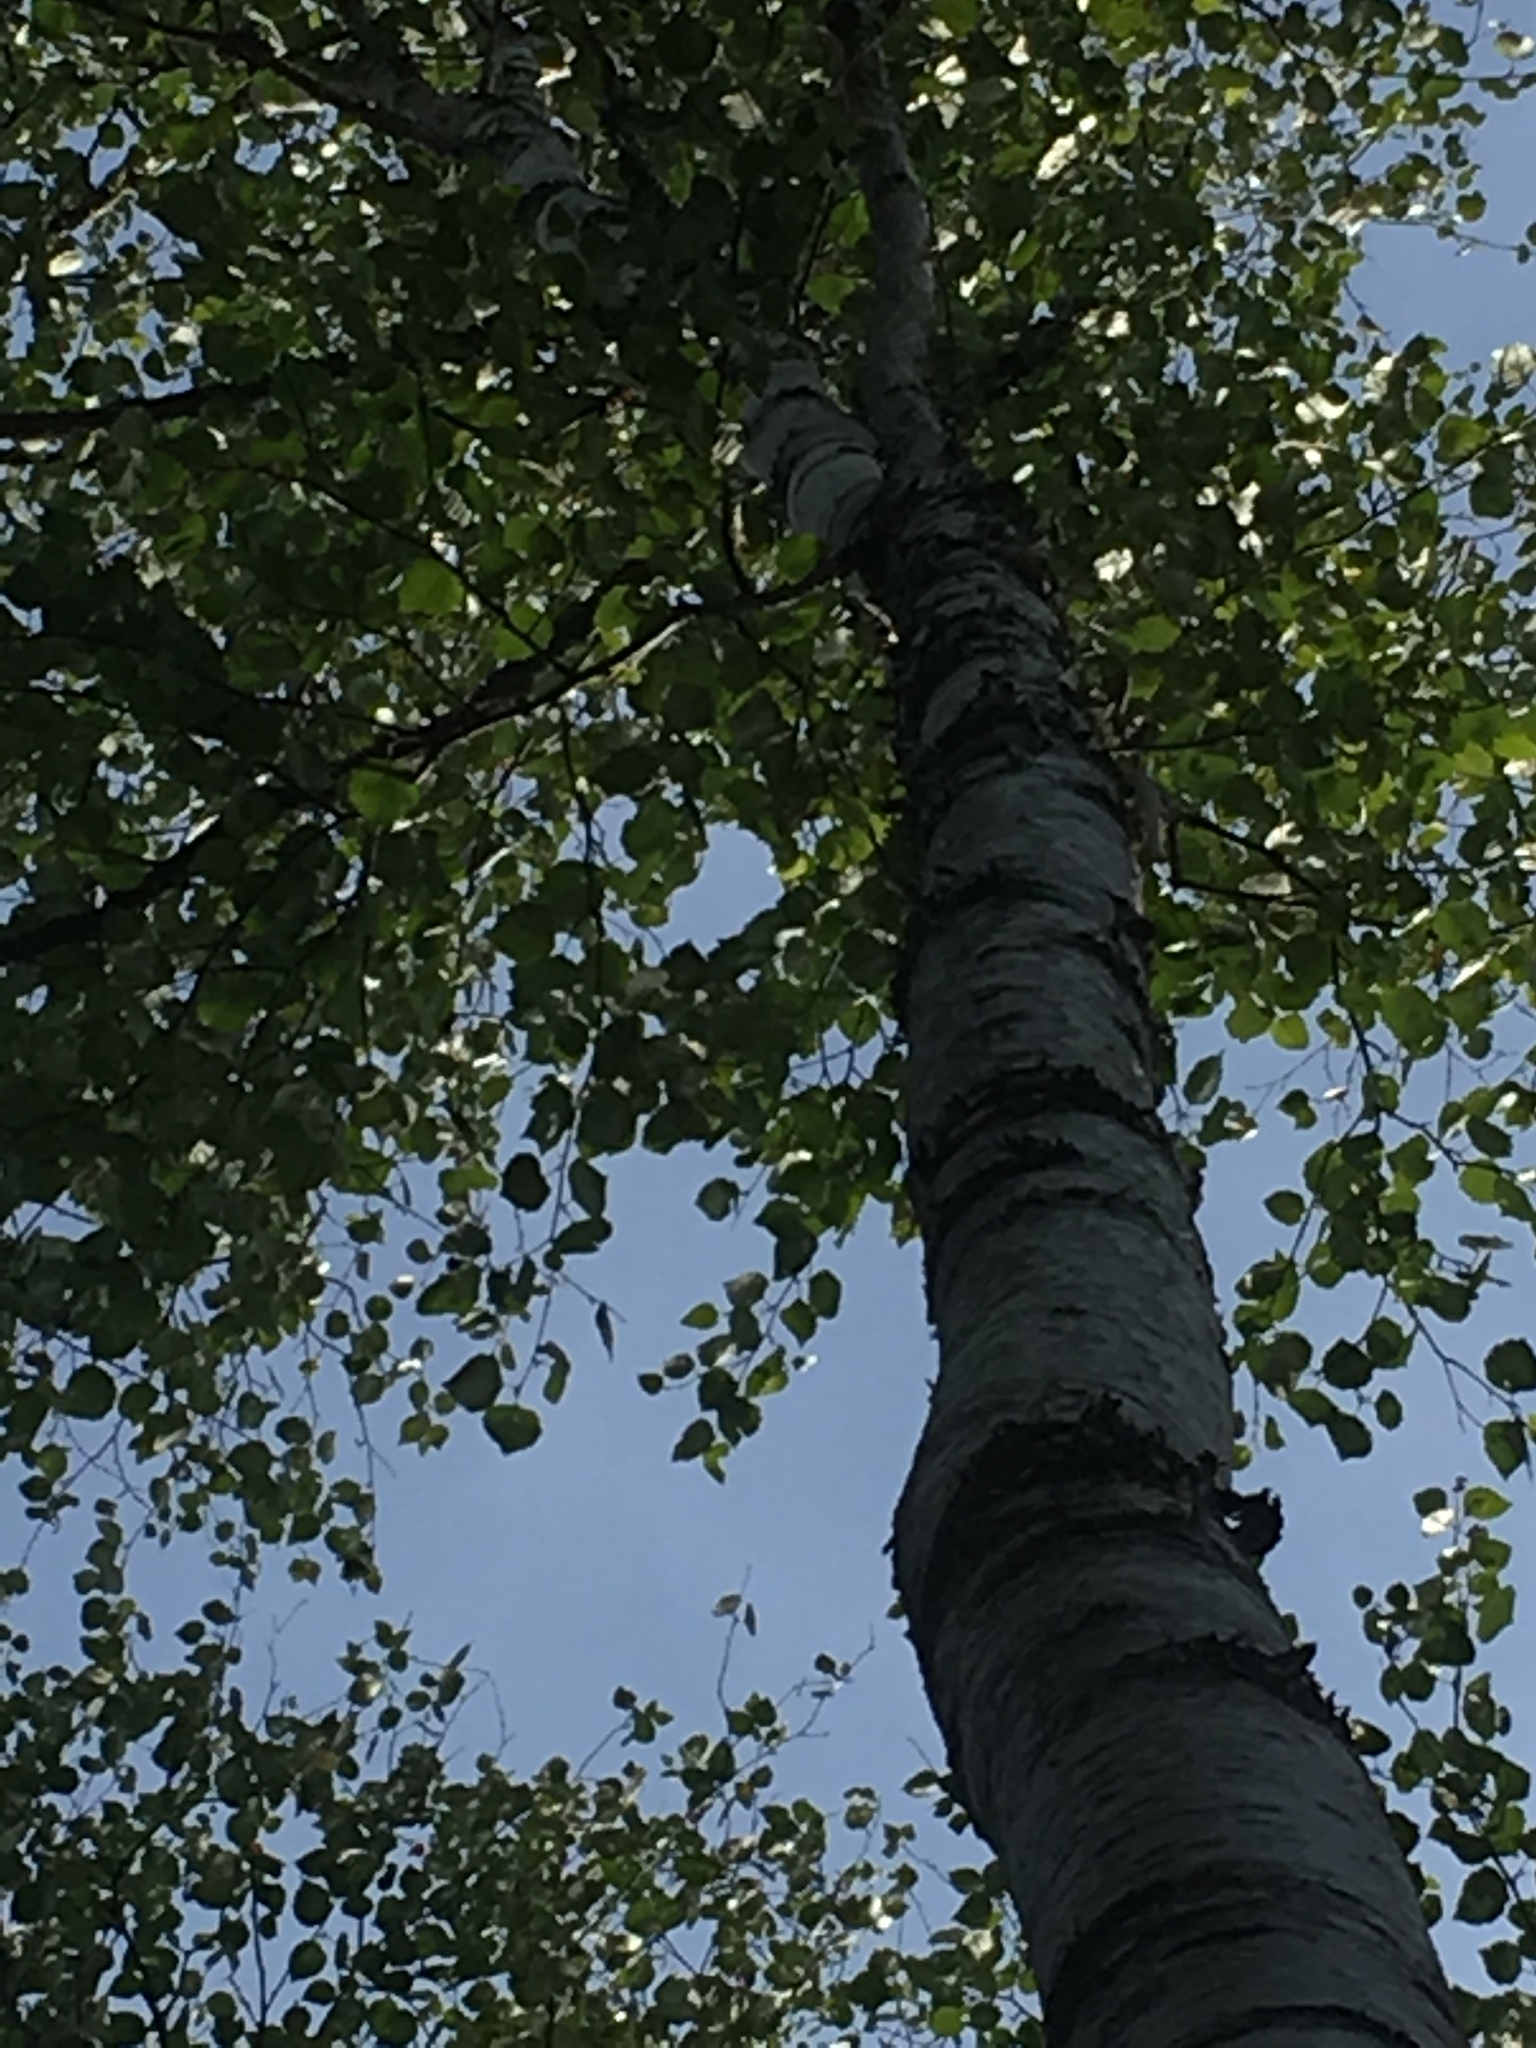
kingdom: Plantae
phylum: Tracheophyta
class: Magnoliopsida
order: Fagales
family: Betulaceae
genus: Betula
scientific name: Betula papyrifera
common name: Paper birch
